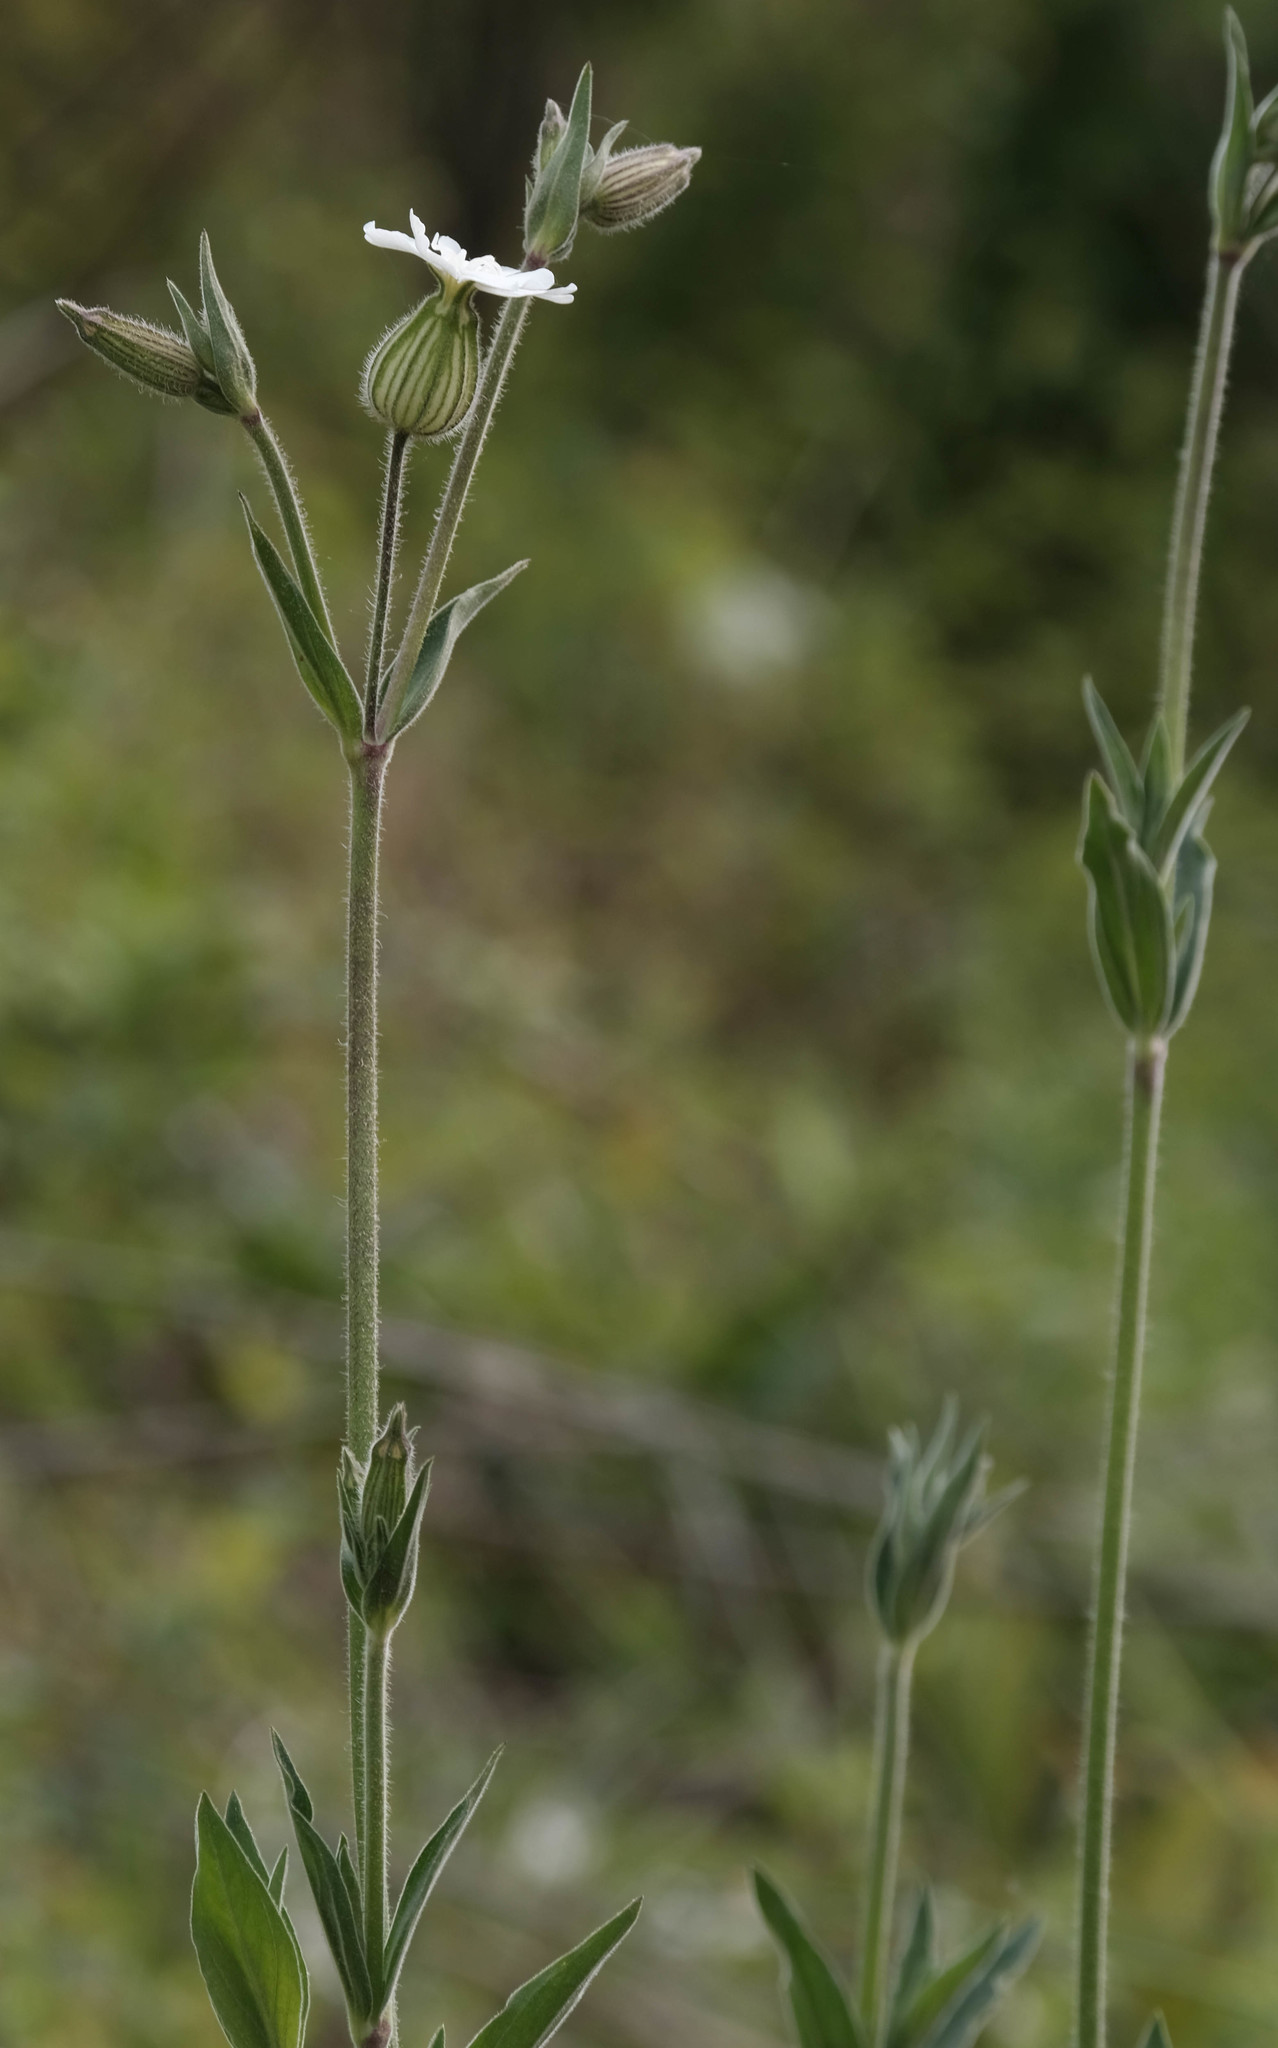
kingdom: Plantae
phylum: Tracheophyta
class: Magnoliopsida
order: Caryophyllales
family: Caryophyllaceae
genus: Silene
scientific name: Silene latifolia
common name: White campion
